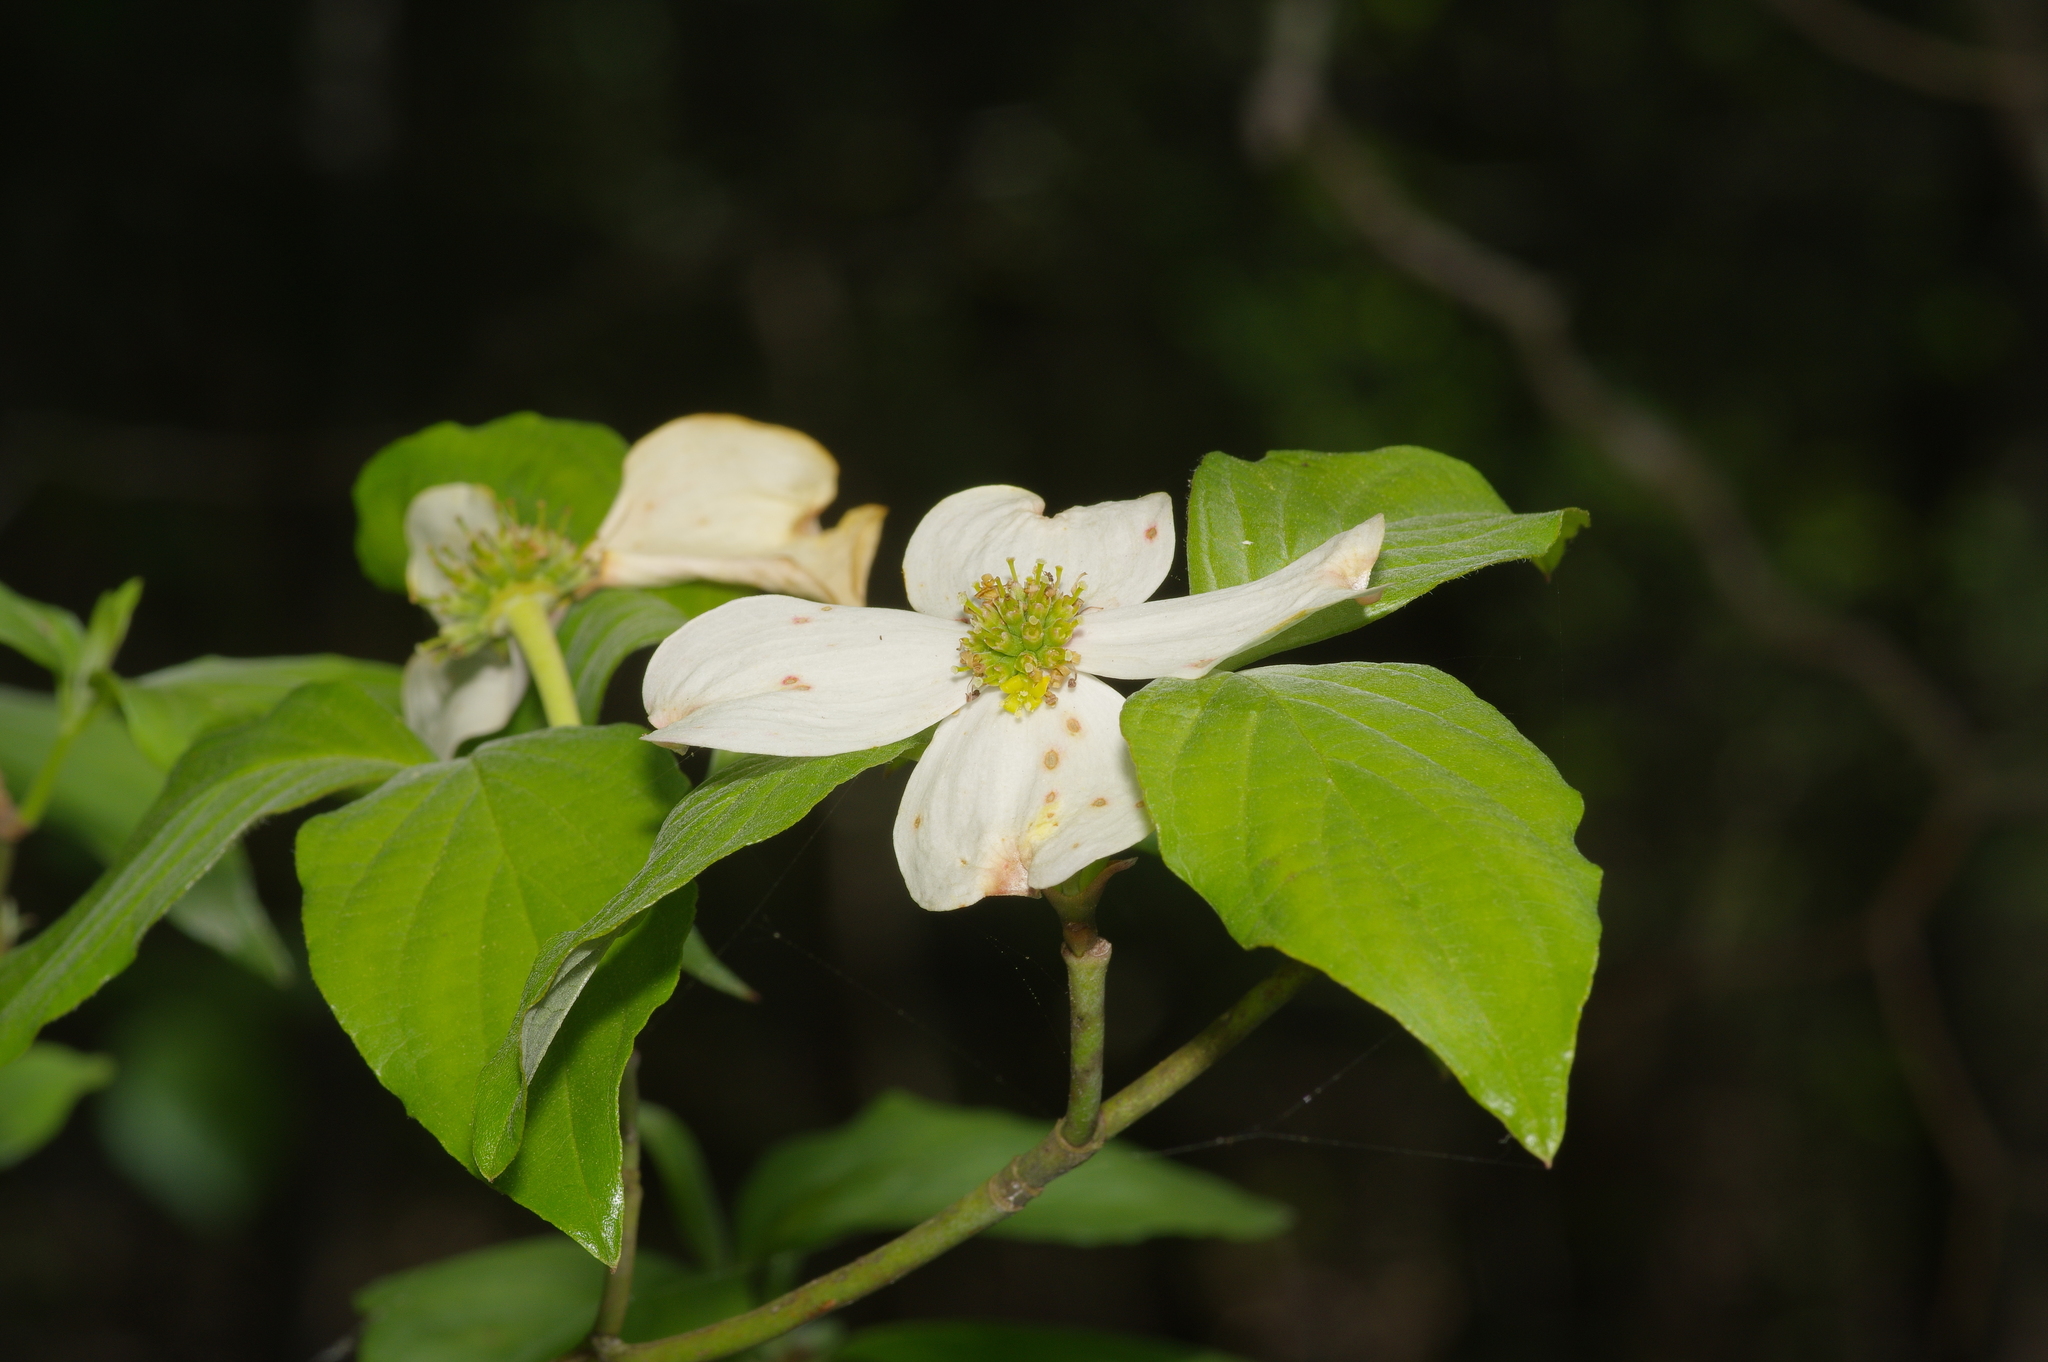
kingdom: Plantae
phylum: Tracheophyta
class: Magnoliopsida
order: Cornales
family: Cornaceae
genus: Cornus
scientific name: Cornus florida
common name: Flowering dogwood
